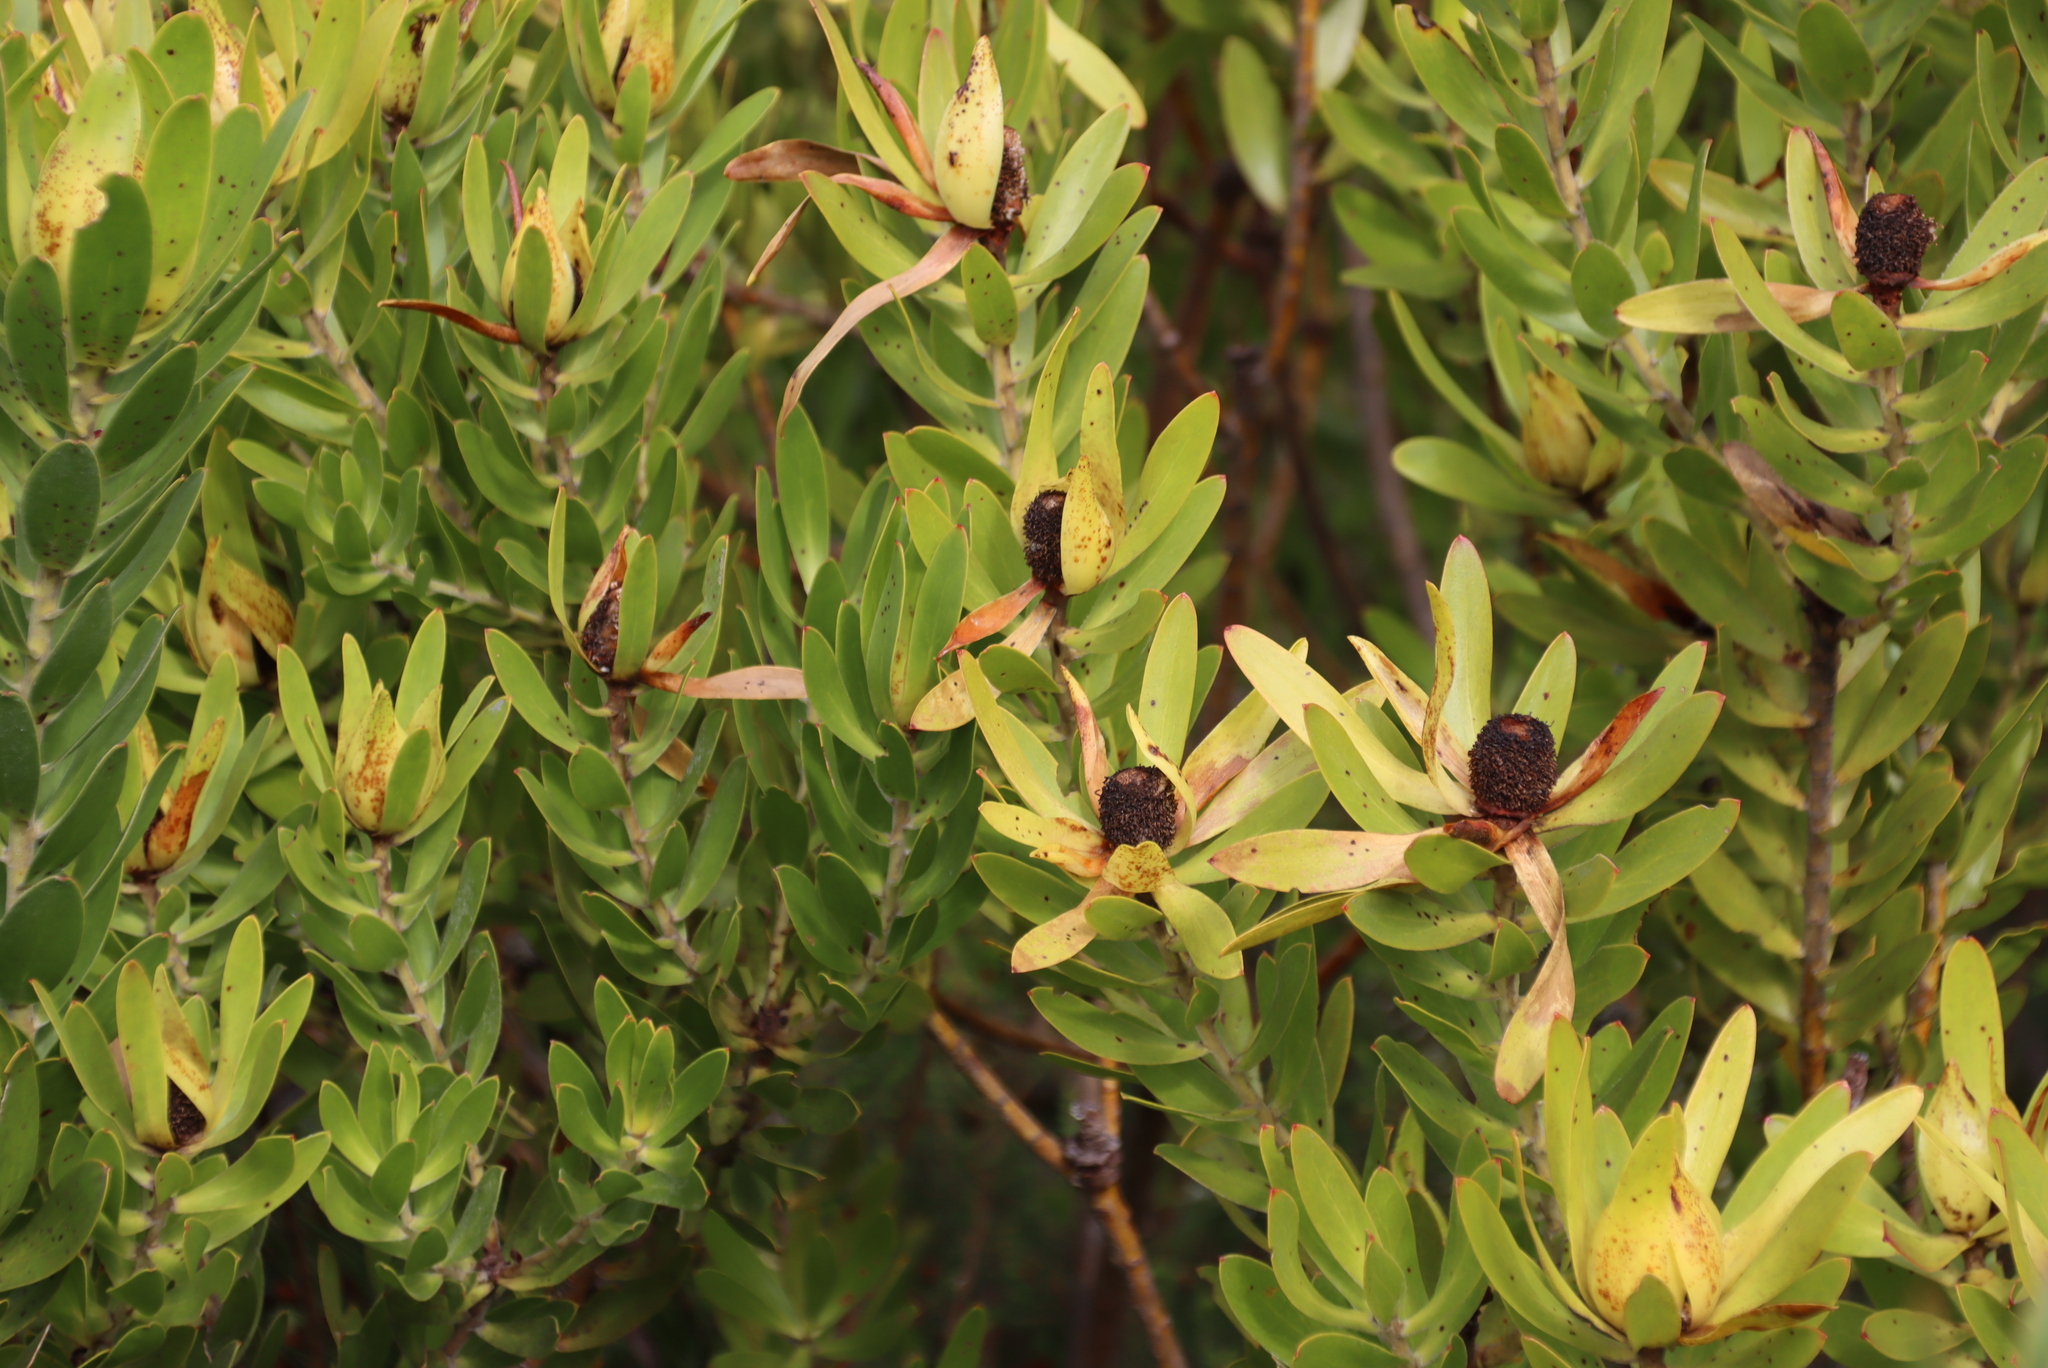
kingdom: Plantae
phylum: Tracheophyta
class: Magnoliopsida
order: Proteales
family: Proteaceae
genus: Leucadendron
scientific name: Leucadendron laureolum
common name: Golden sunshinebush
